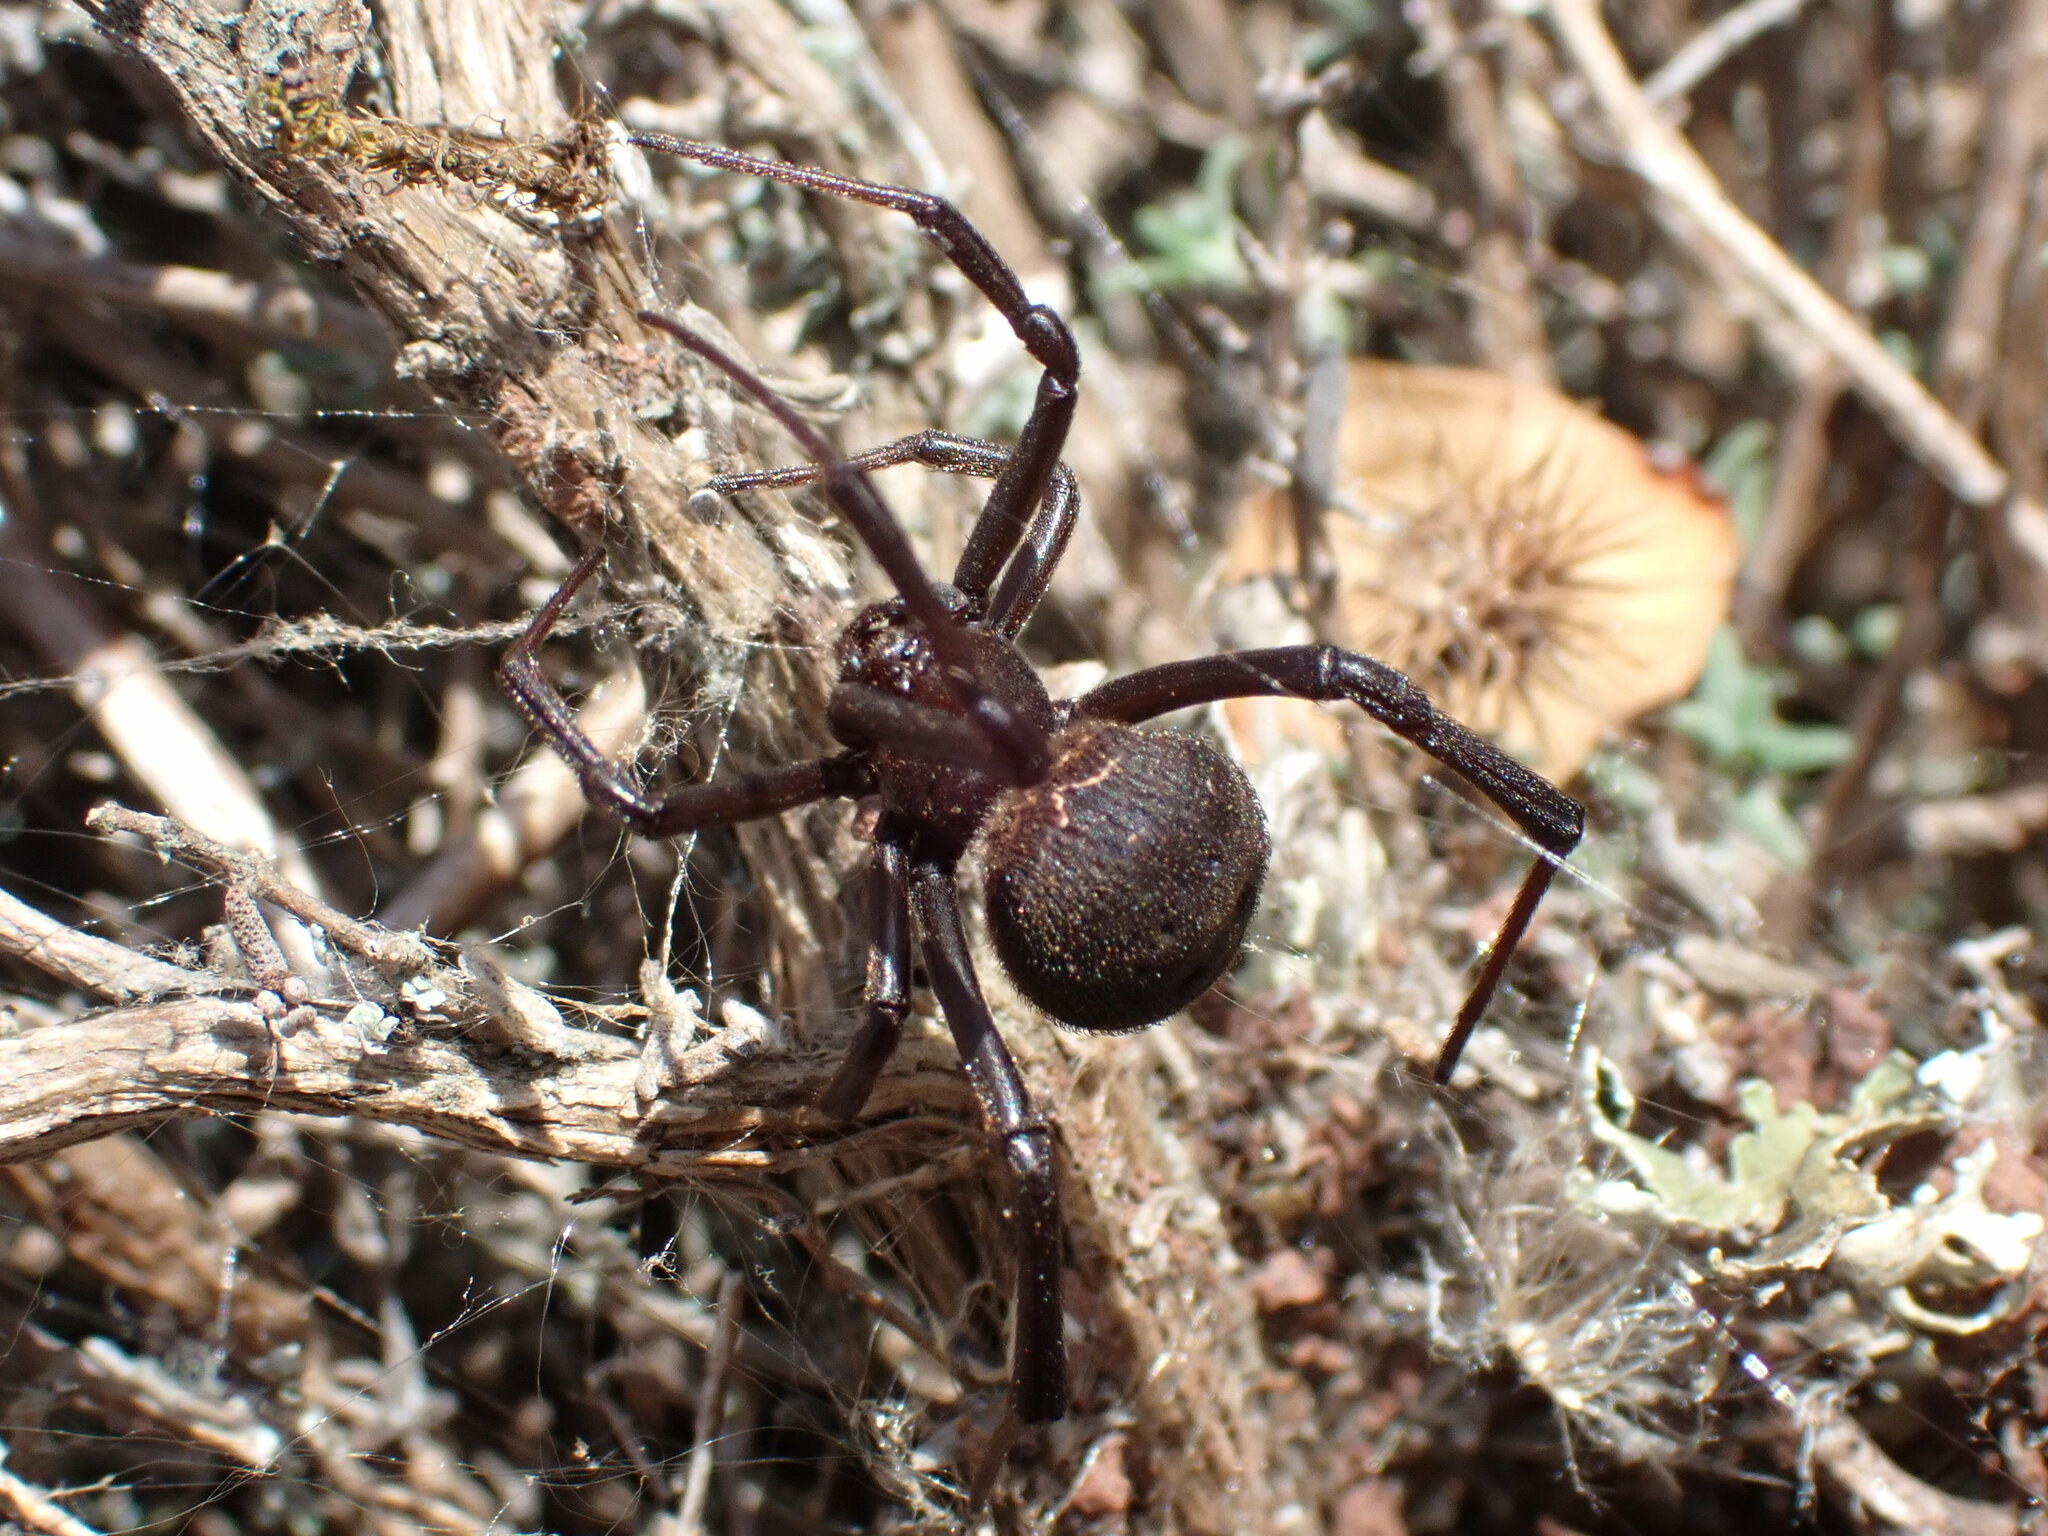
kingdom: Animalia
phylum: Arthropoda
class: Arachnida
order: Araneae
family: Theridiidae
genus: Latrodectus
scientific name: Latrodectus tredecimguttatus
